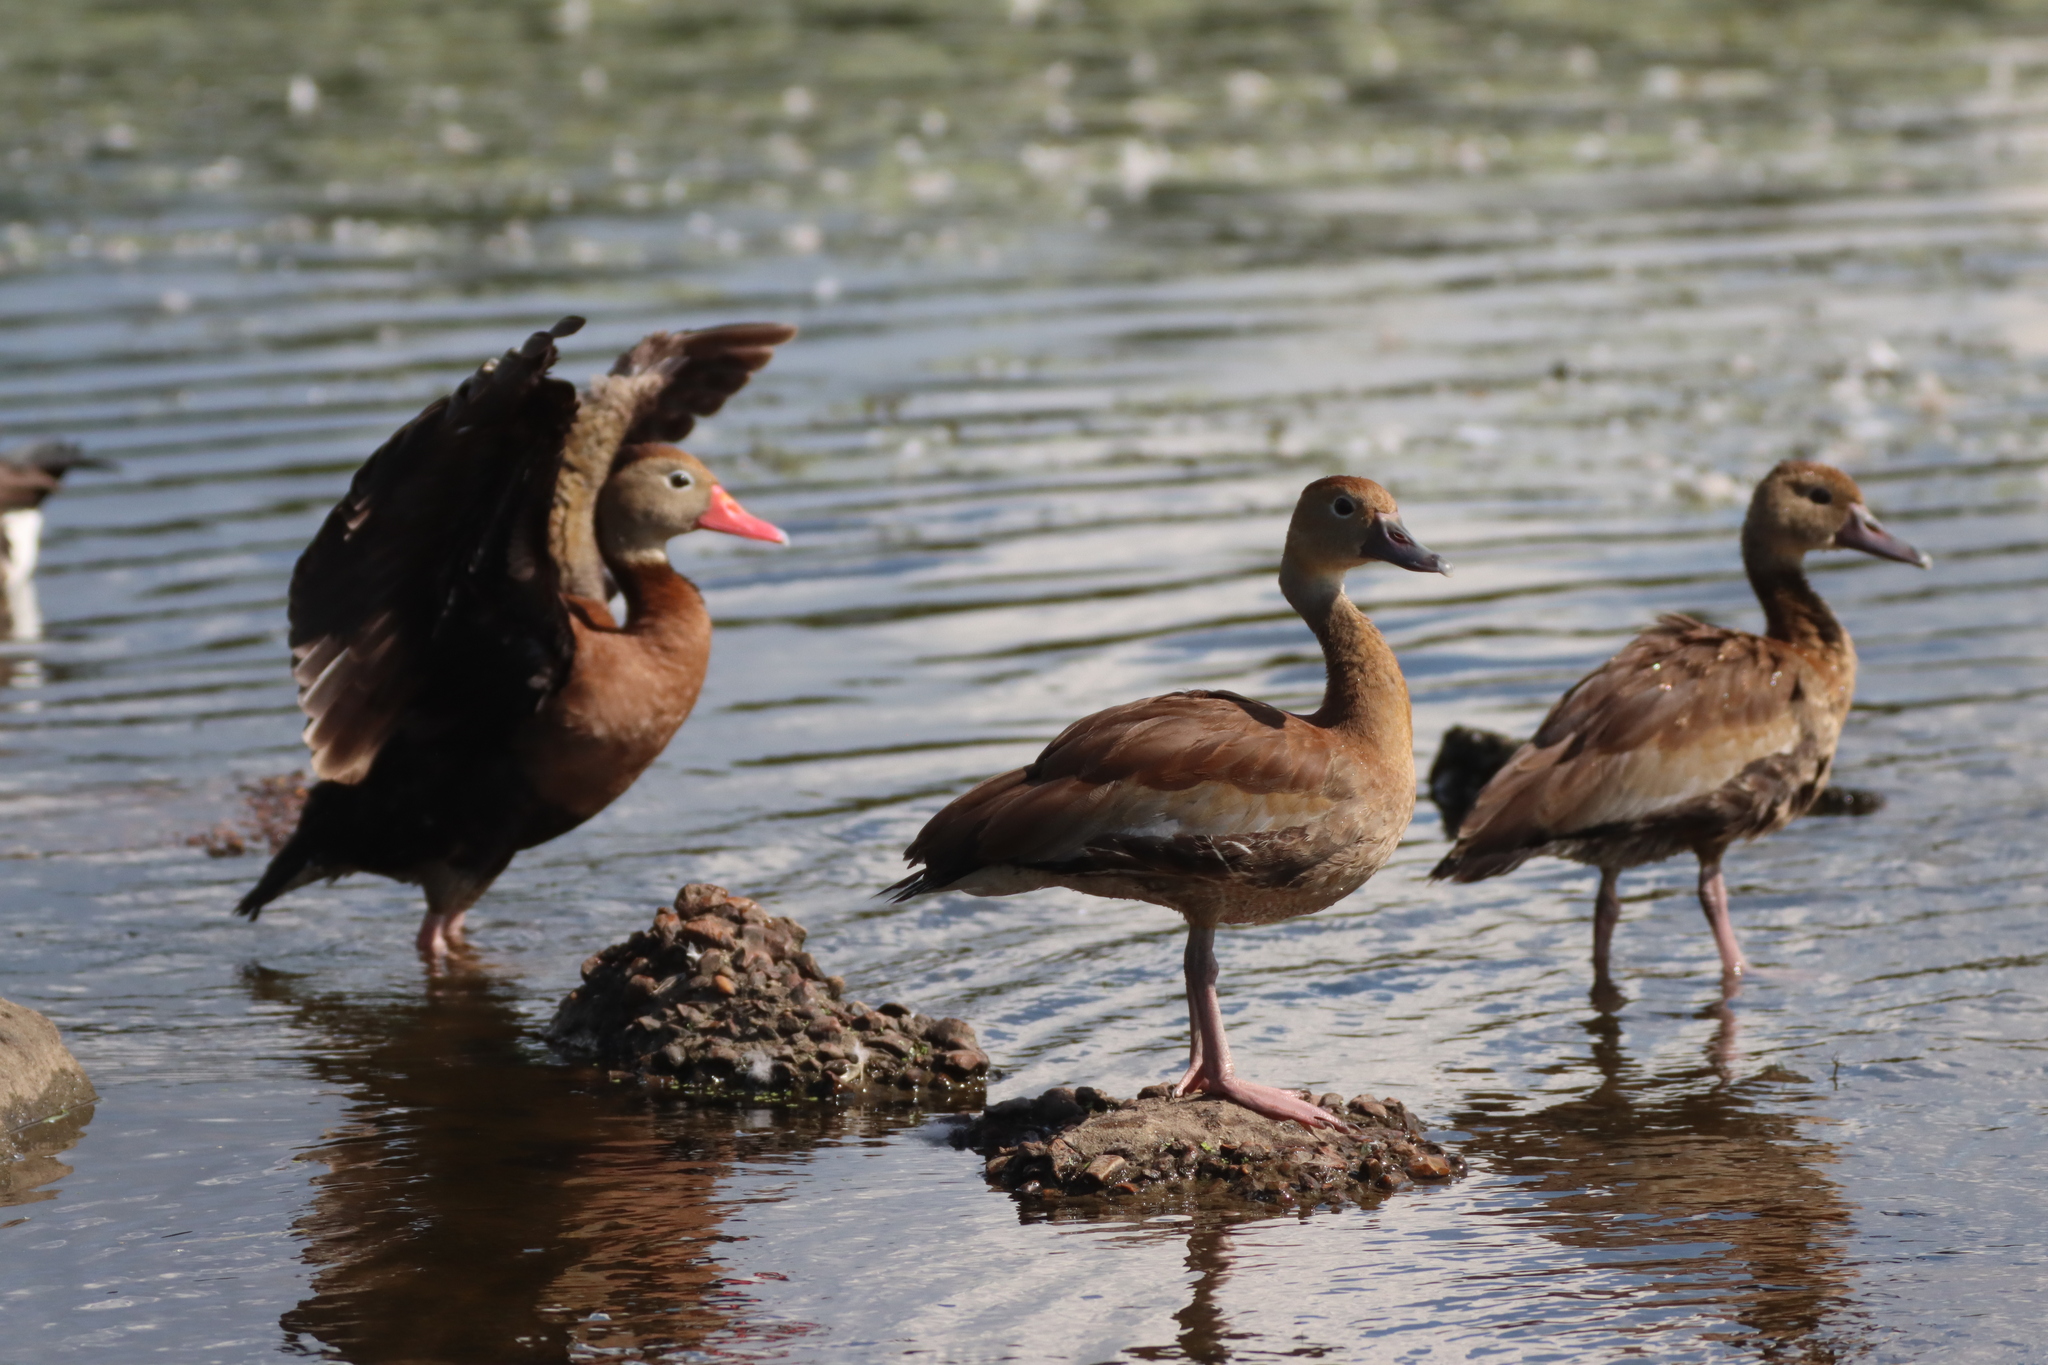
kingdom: Animalia
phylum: Chordata
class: Aves
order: Anseriformes
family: Anatidae
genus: Dendrocygna
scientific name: Dendrocygna autumnalis
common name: Black-bellied whistling duck
